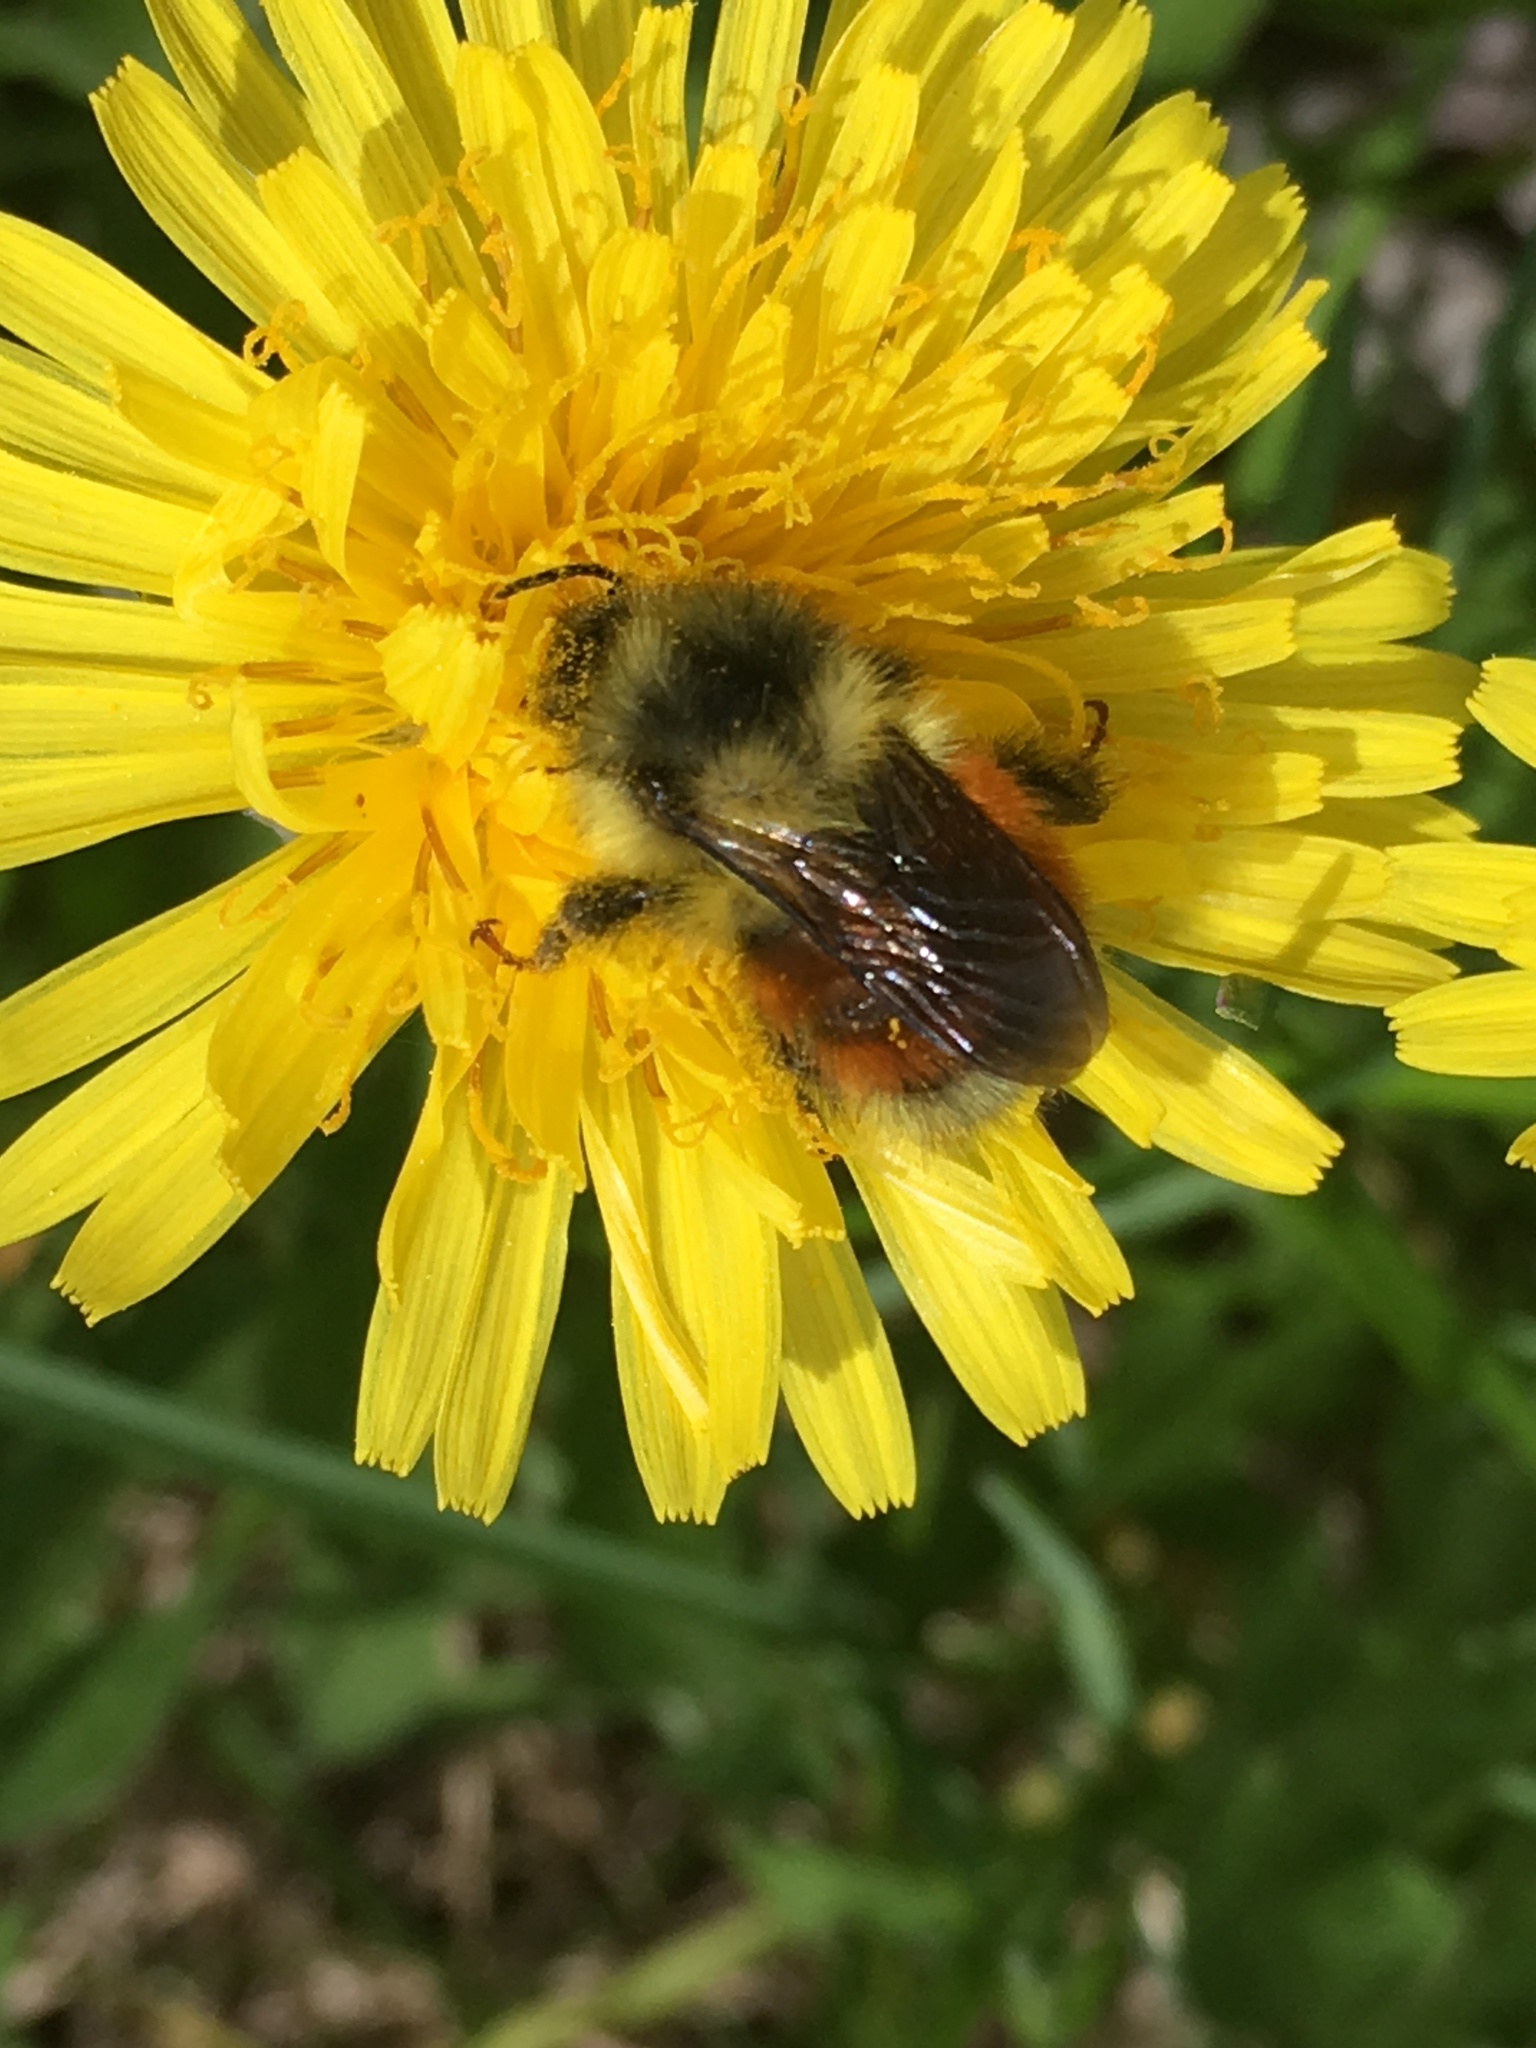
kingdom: Animalia
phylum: Arthropoda
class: Insecta
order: Hymenoptera
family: Apidae
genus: Bombus
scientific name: Bombus melanopygus
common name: Black tail bumble bee
